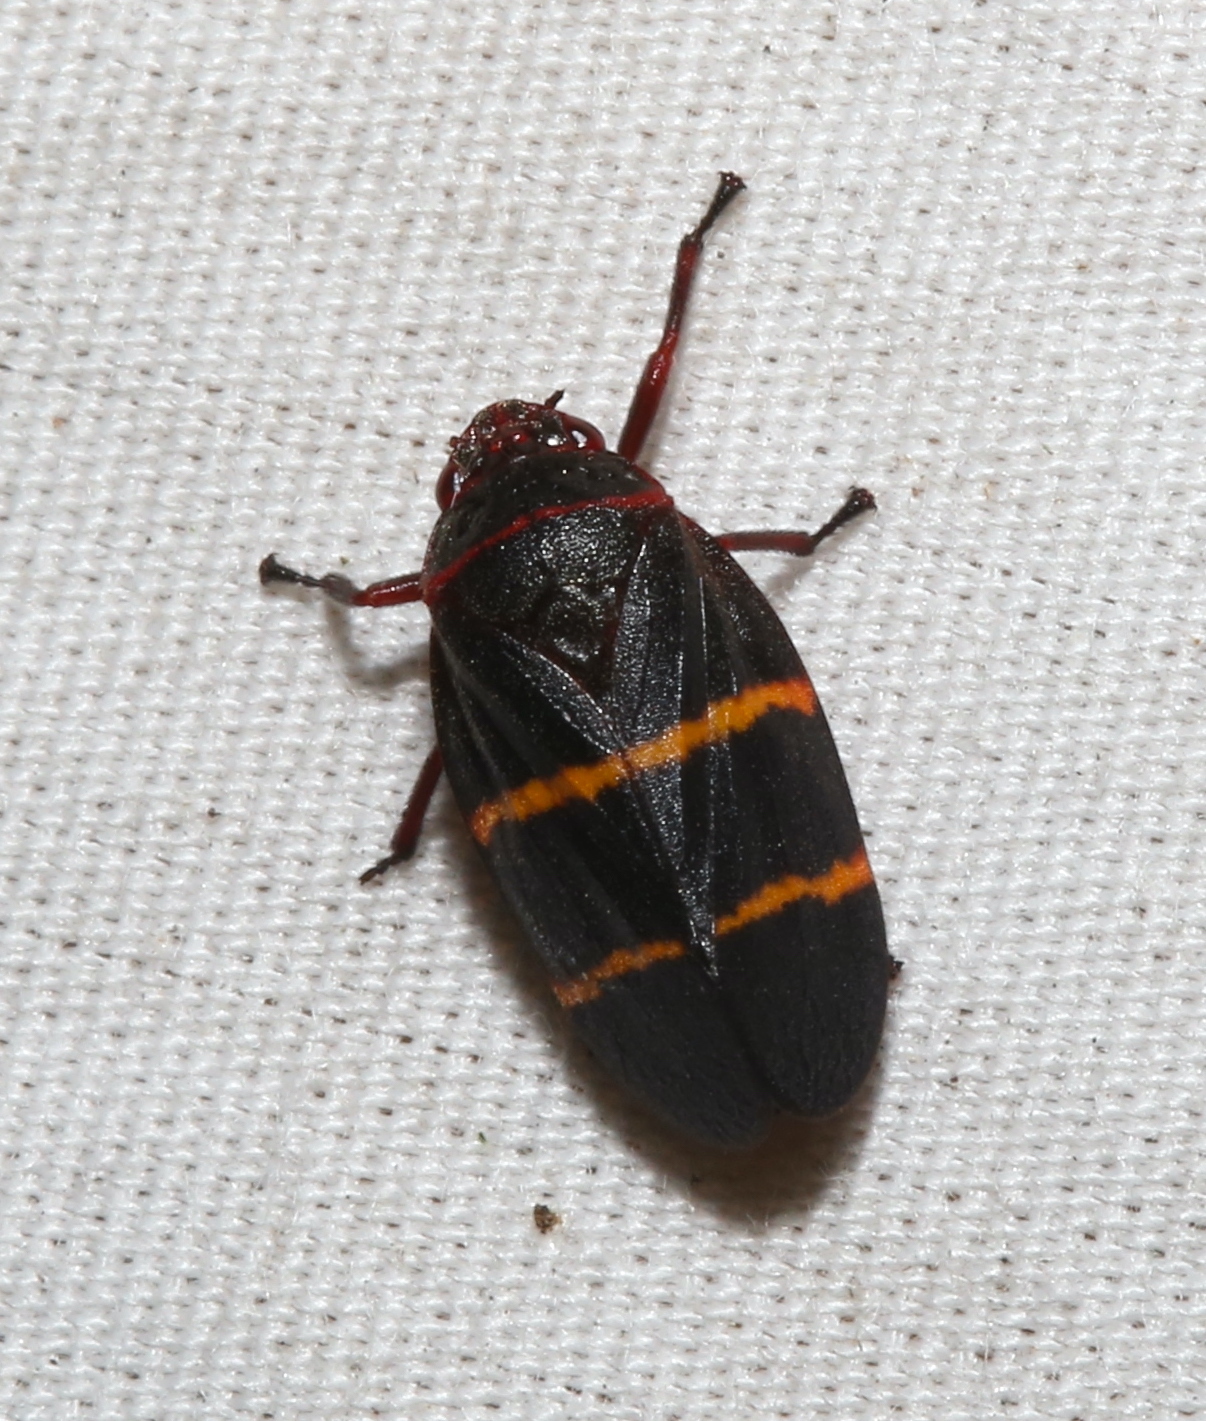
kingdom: Animalia
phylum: Arthropoda
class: Insecta
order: Hemiptera
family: Cercopidae
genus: Prosapia
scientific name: Prosapia bicincta
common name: Twolined spittlebug
